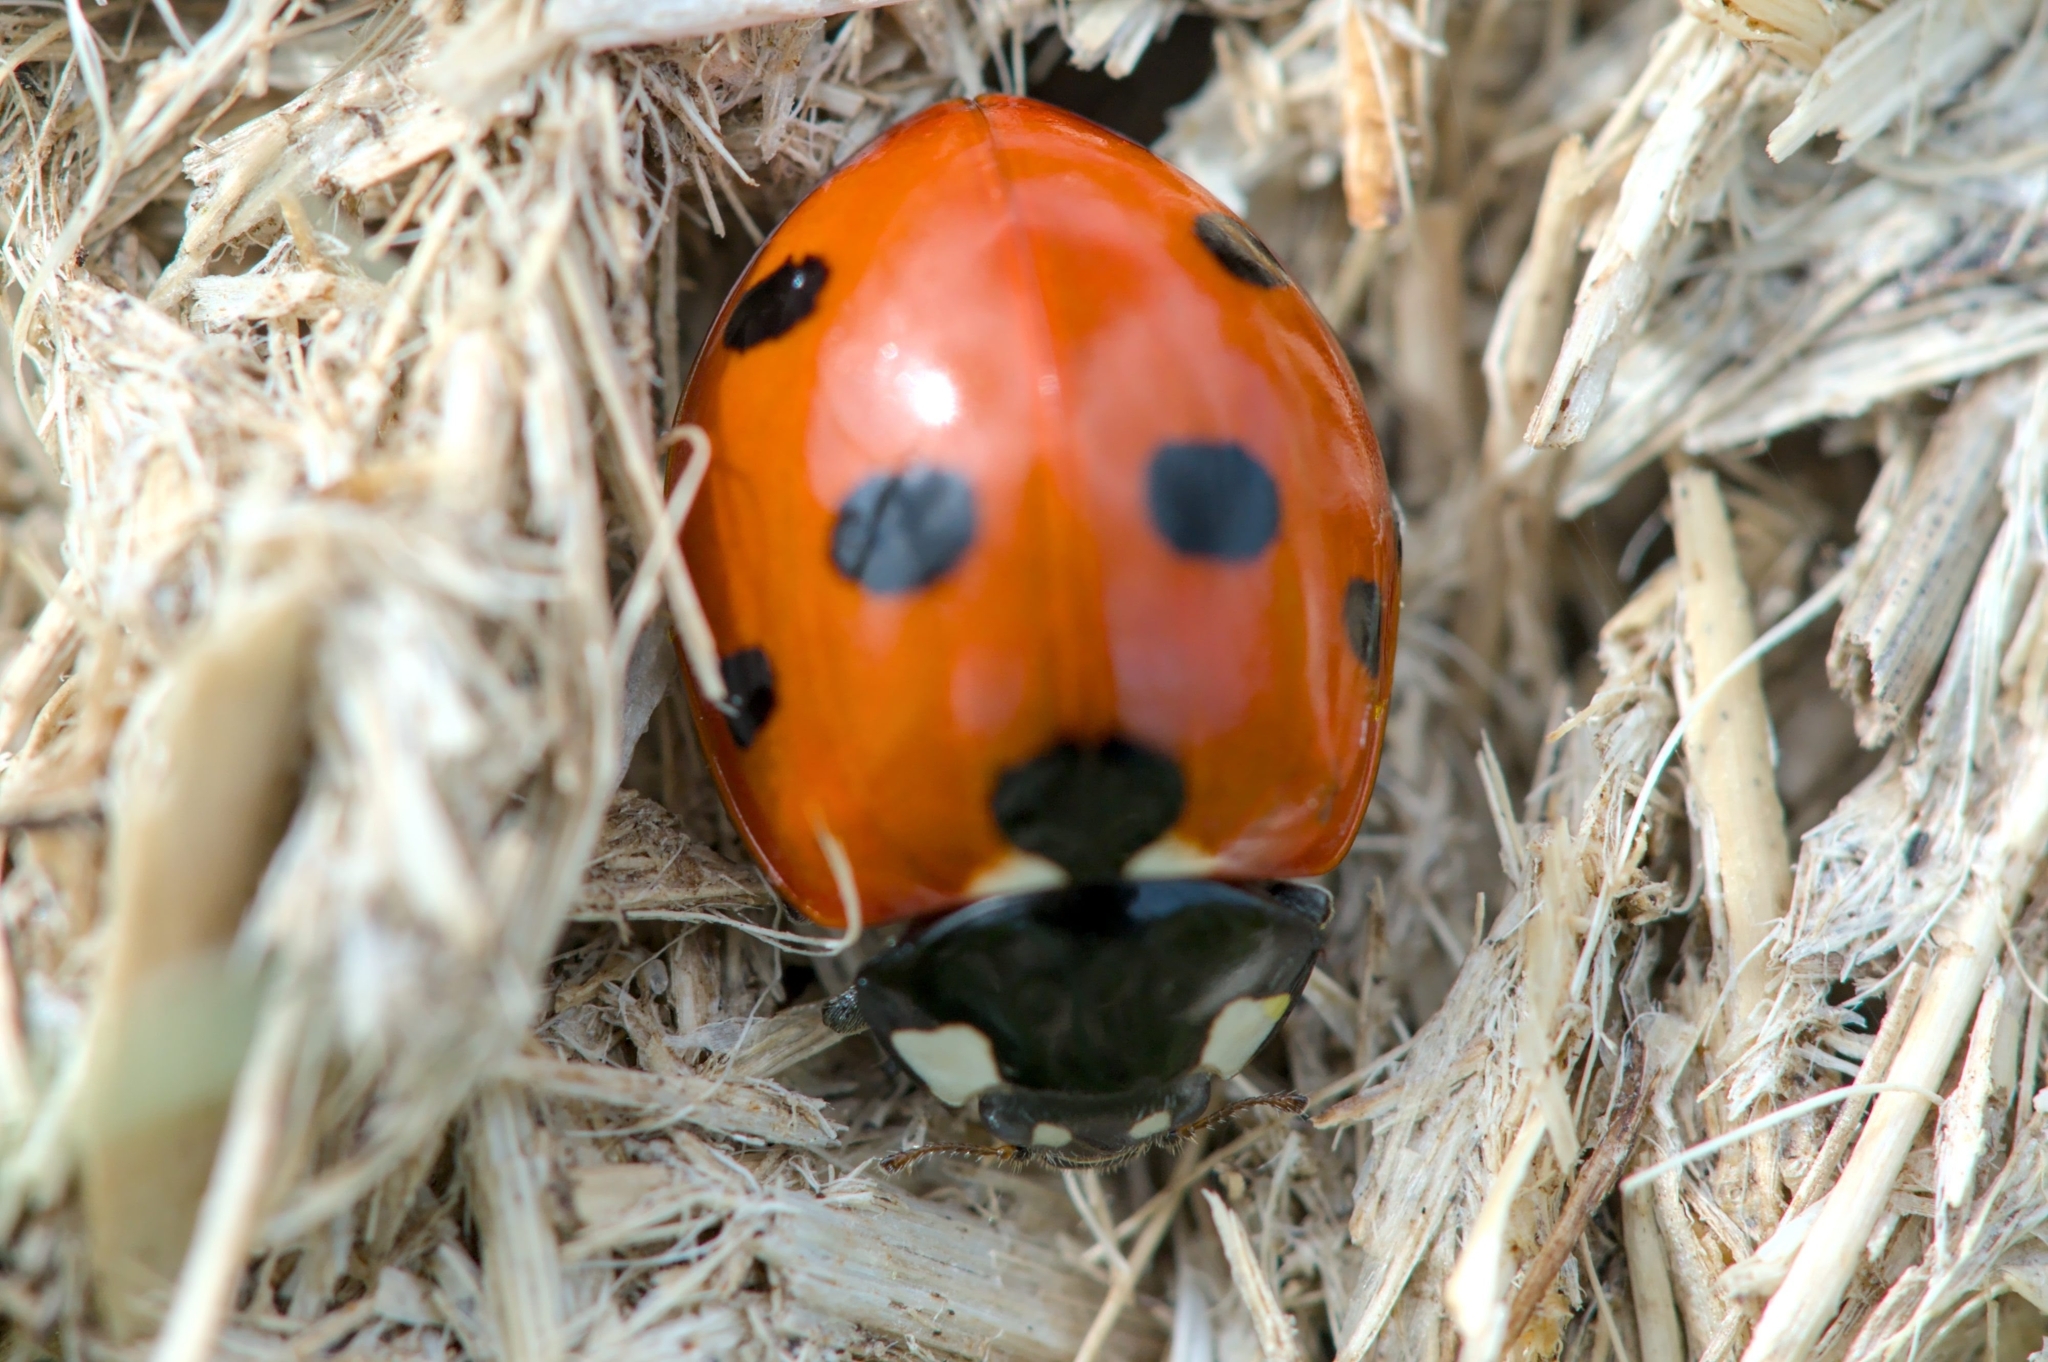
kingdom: Animalia
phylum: Arthropoda
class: Insecta
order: Coleoptera
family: Coccinellidae
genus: Coccinella
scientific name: Coccinella septempunctata
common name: Sevenspotted lady beetle
